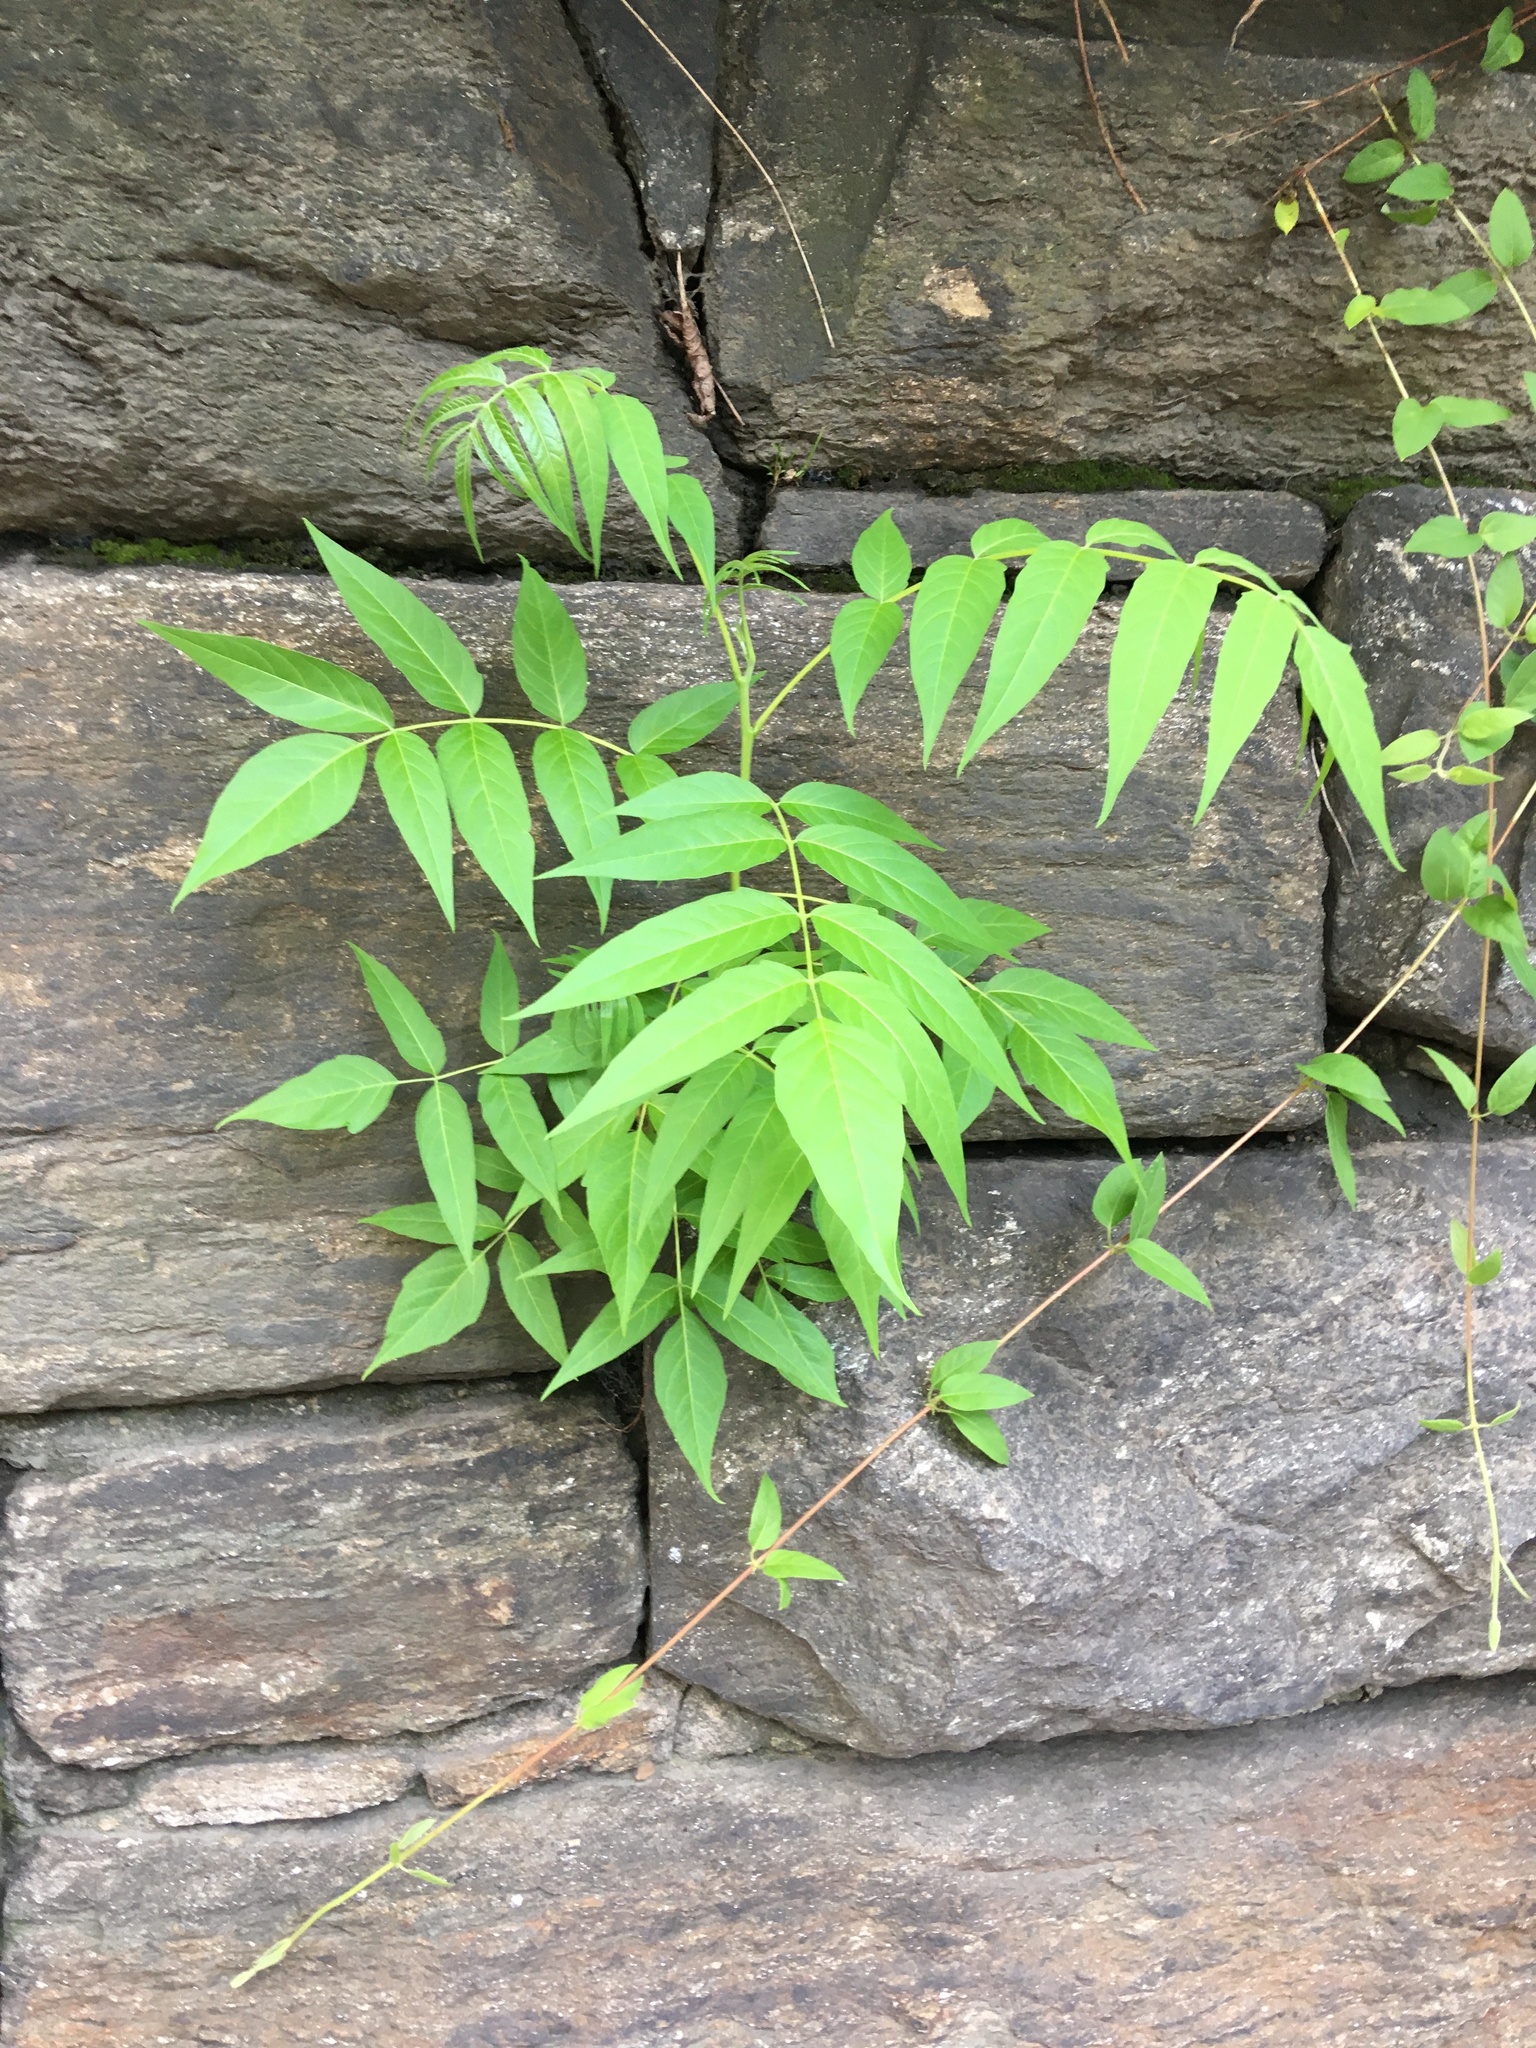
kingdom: Plantae
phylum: Tracheophyta
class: Magnoliopsida
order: Sapindales
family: Simaroubaceae
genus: Ailanthus
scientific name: Ailanthus altissima
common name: Tree-of-heaven
